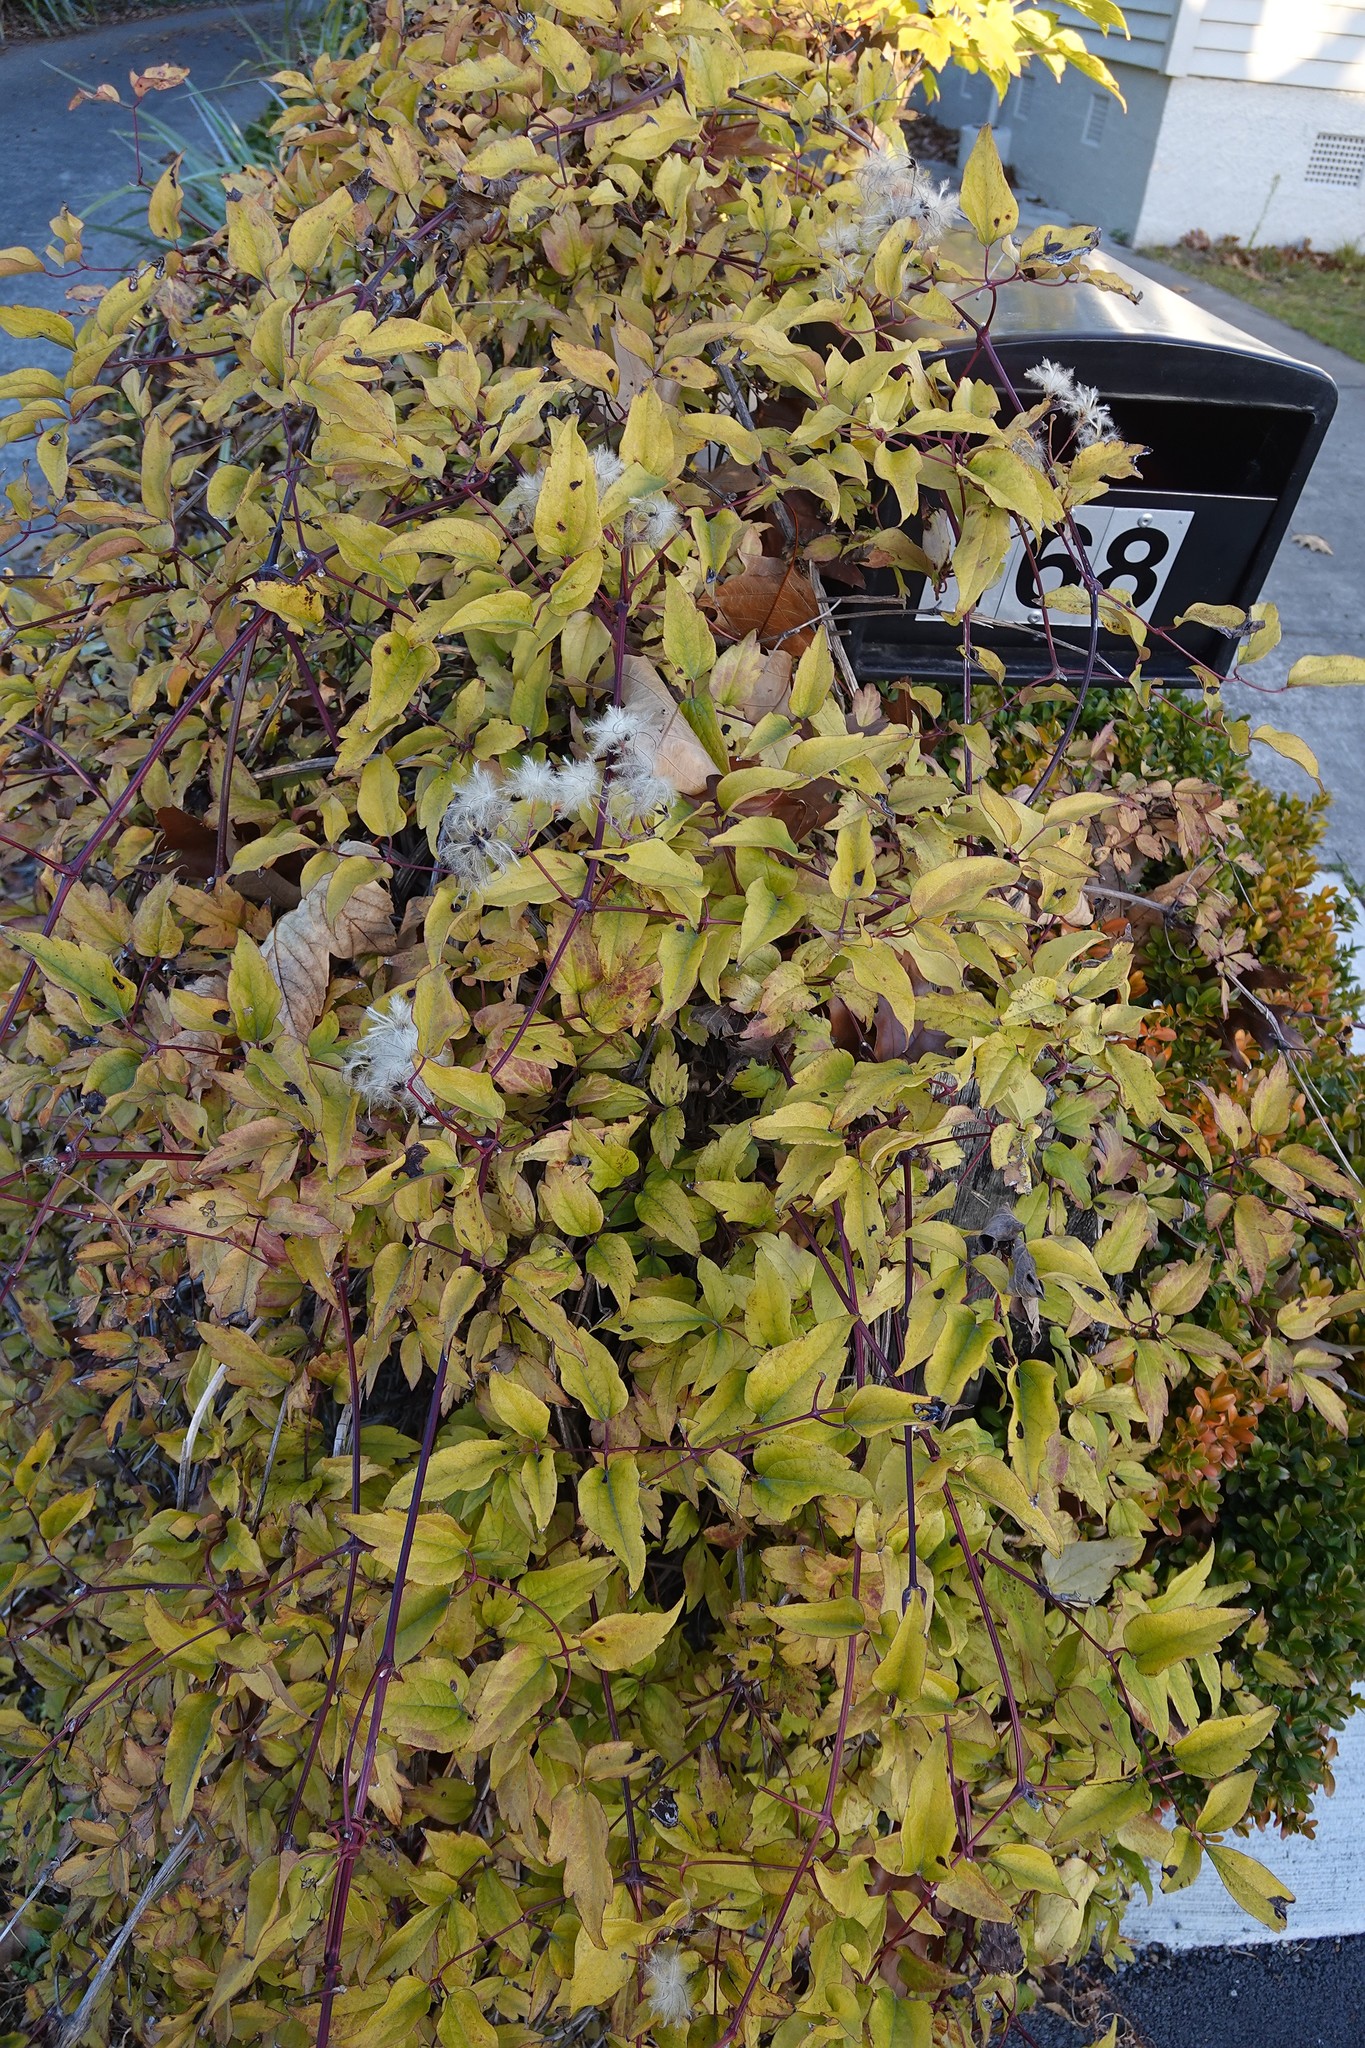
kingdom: Plantae
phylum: Tracheophyta
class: Magnoliopsida
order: Ranunculales
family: Ranunculaceae
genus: Clematis
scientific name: Clematis vitalba
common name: Evergreen clematis
